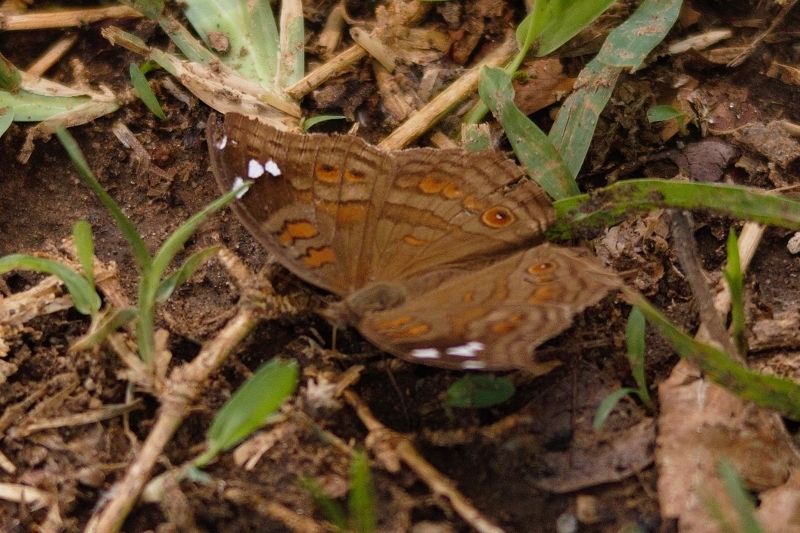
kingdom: Animalia
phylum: Arthropoda
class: Insecta
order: Lepidoptera
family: Nymphalidae
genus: Junonia
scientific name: Junonia natalica
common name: Brown pansy
